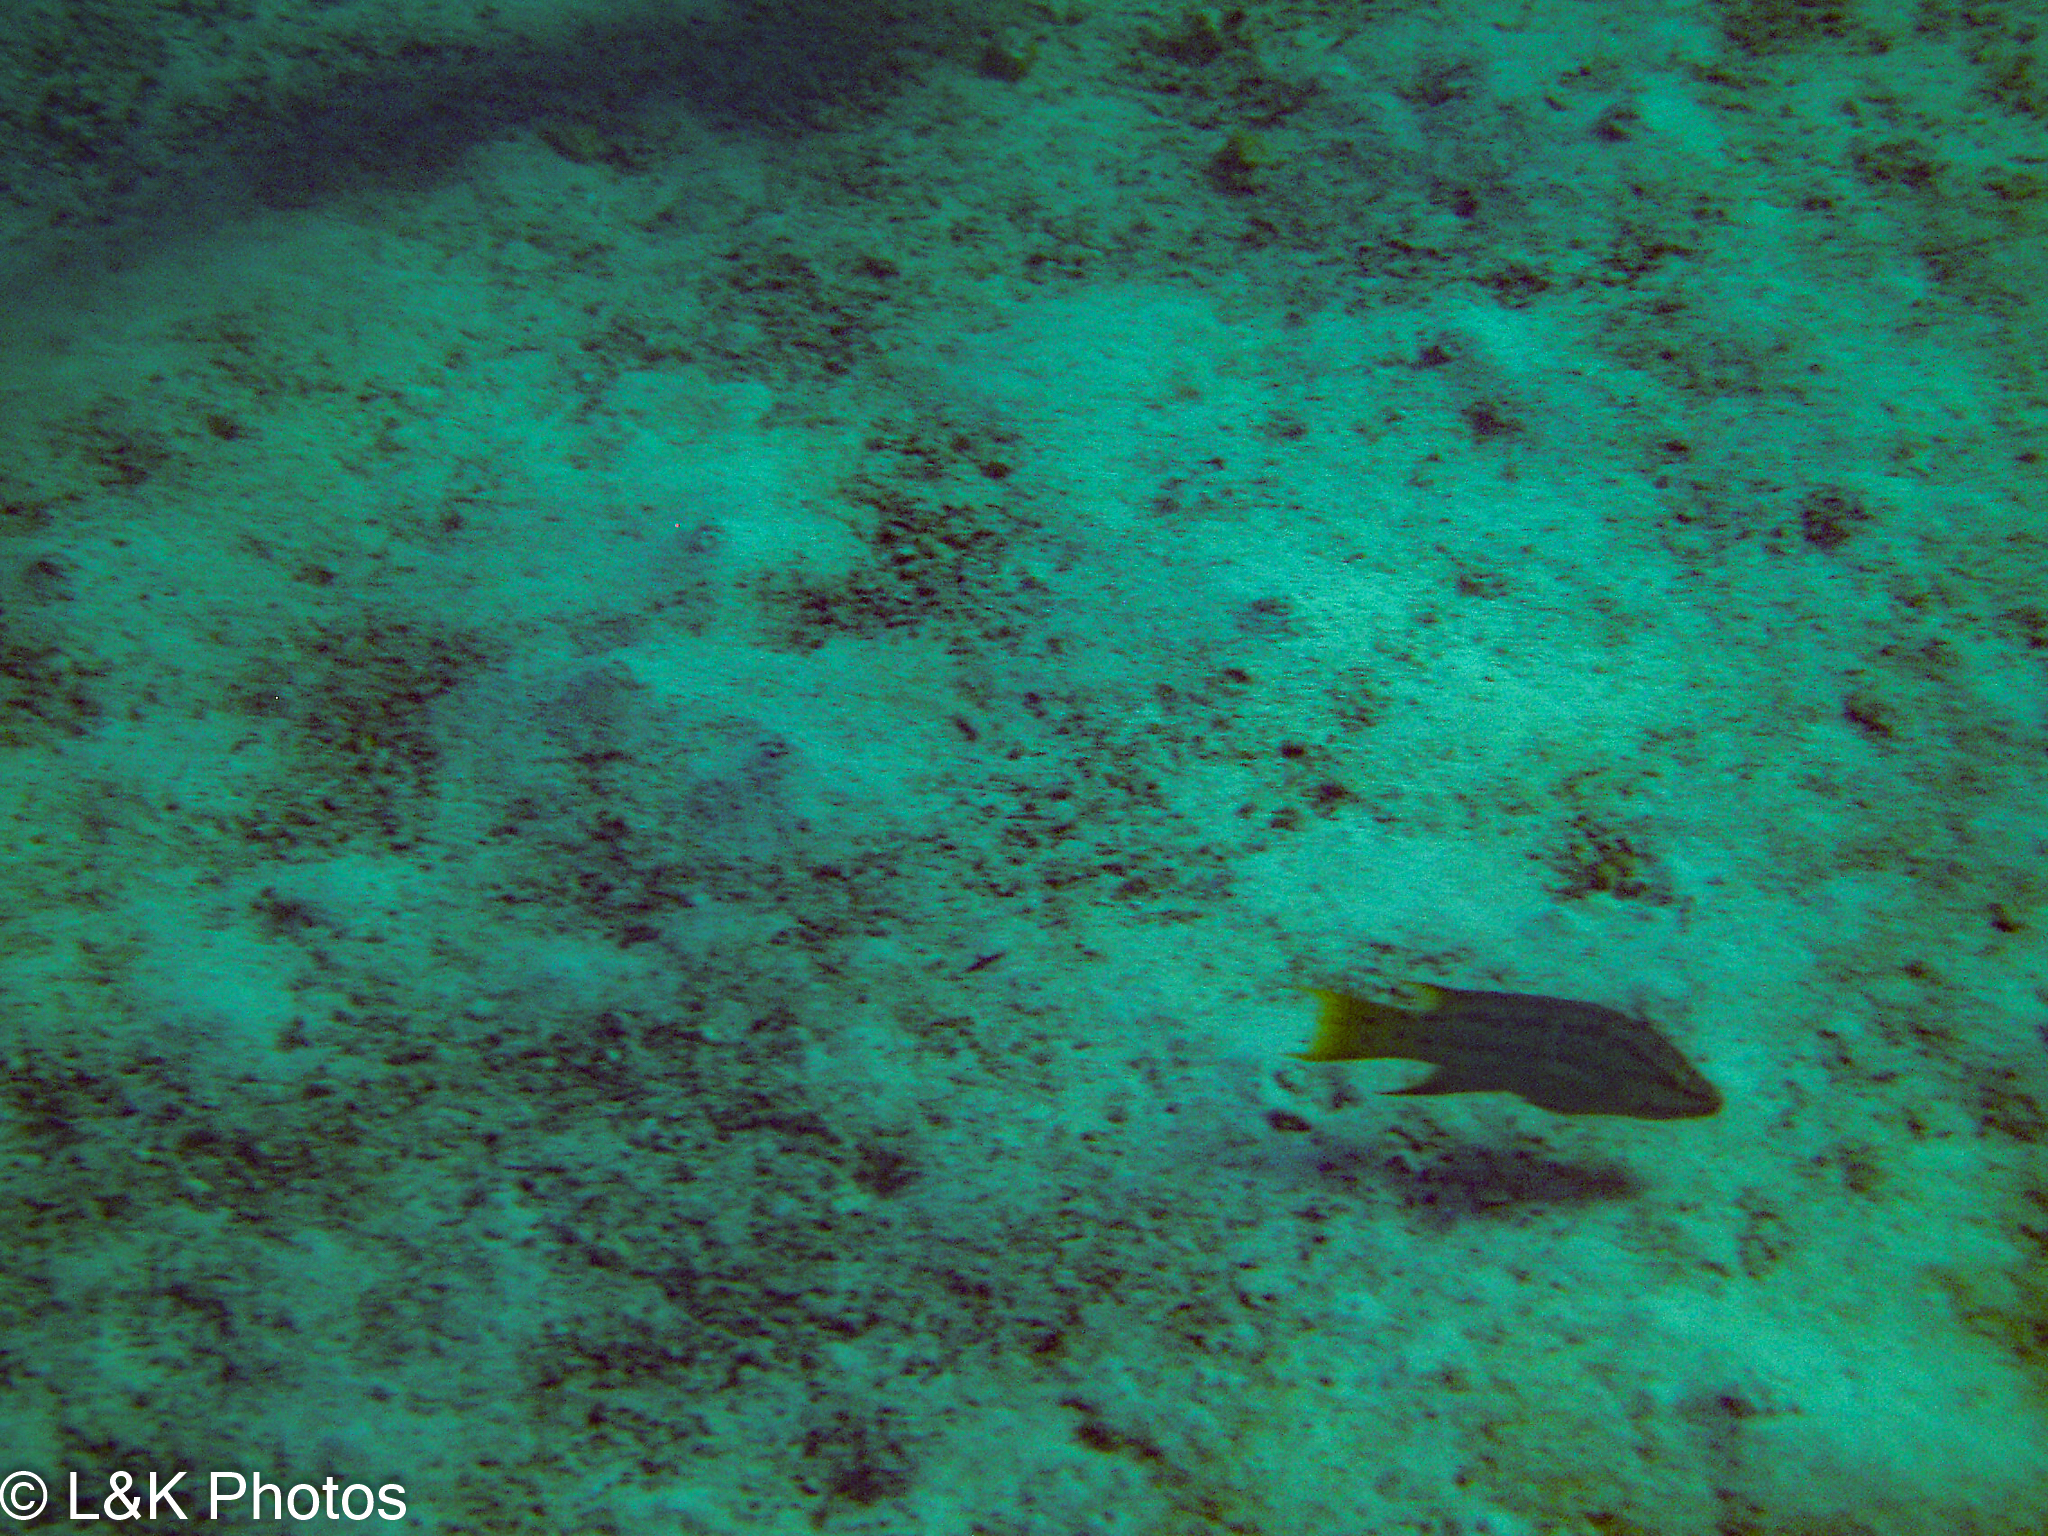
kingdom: Animalia
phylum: Chordata
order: Perciformes
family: Labridae
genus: Bodianus
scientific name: Bodianus diplotaenia
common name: Mexican hogfish
